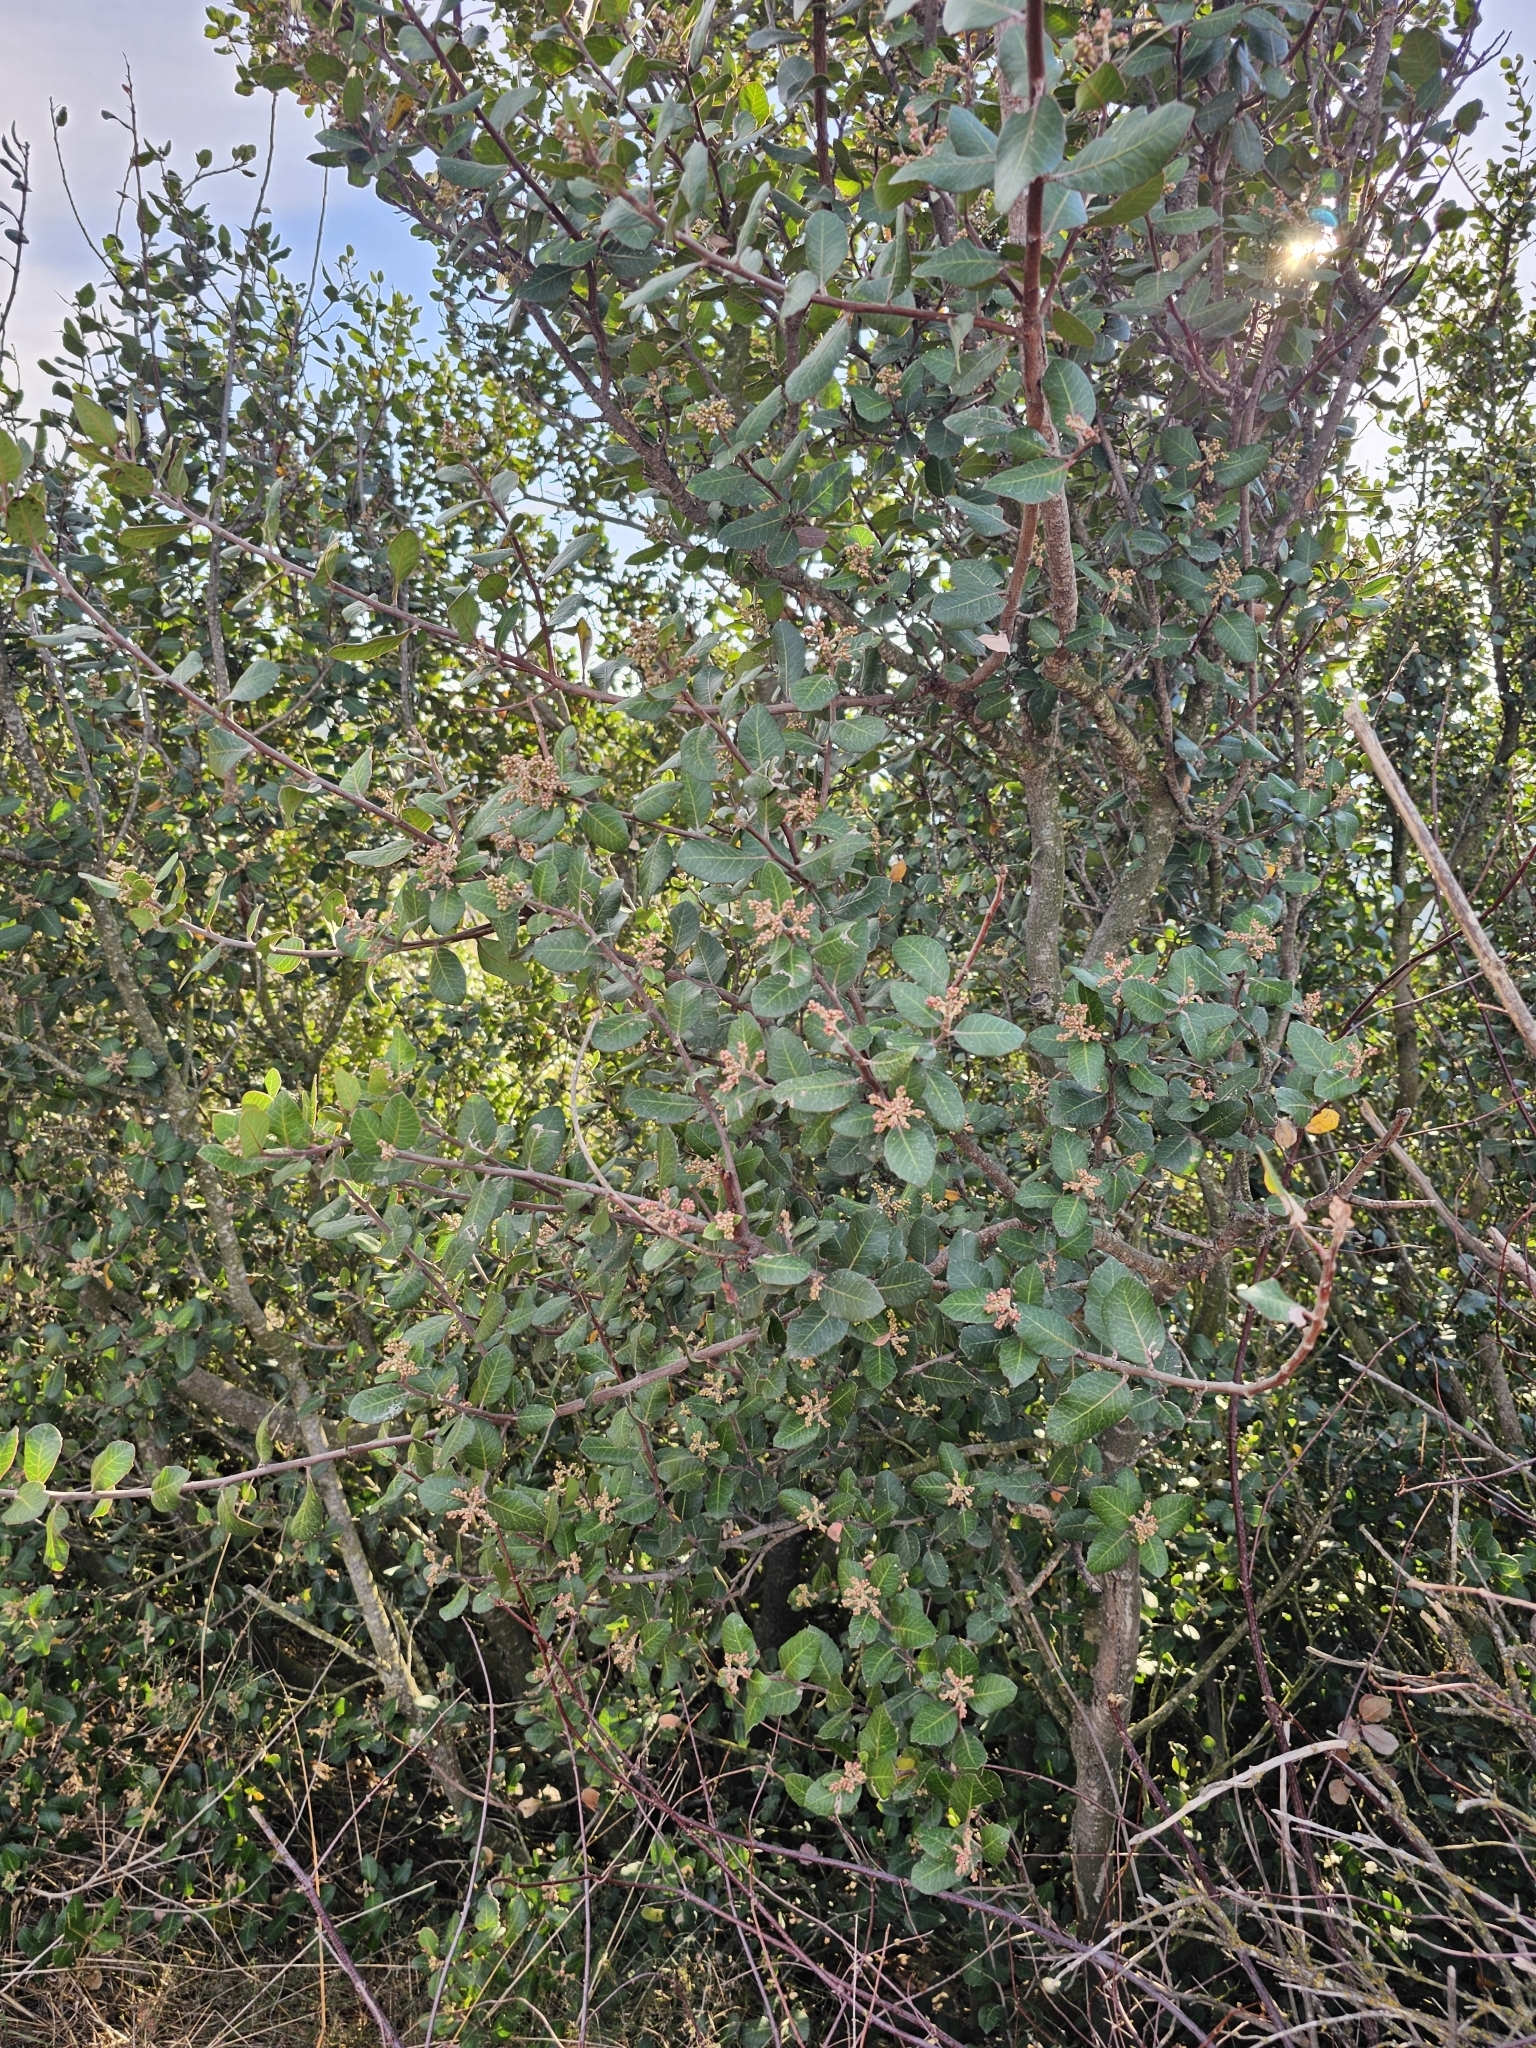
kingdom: Plantae
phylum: Tracheophyta
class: Magnoliopsida
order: Sapindales
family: Anacardiaceae
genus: Rhus
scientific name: Rhus integrifolia
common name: Lemonade sumac
